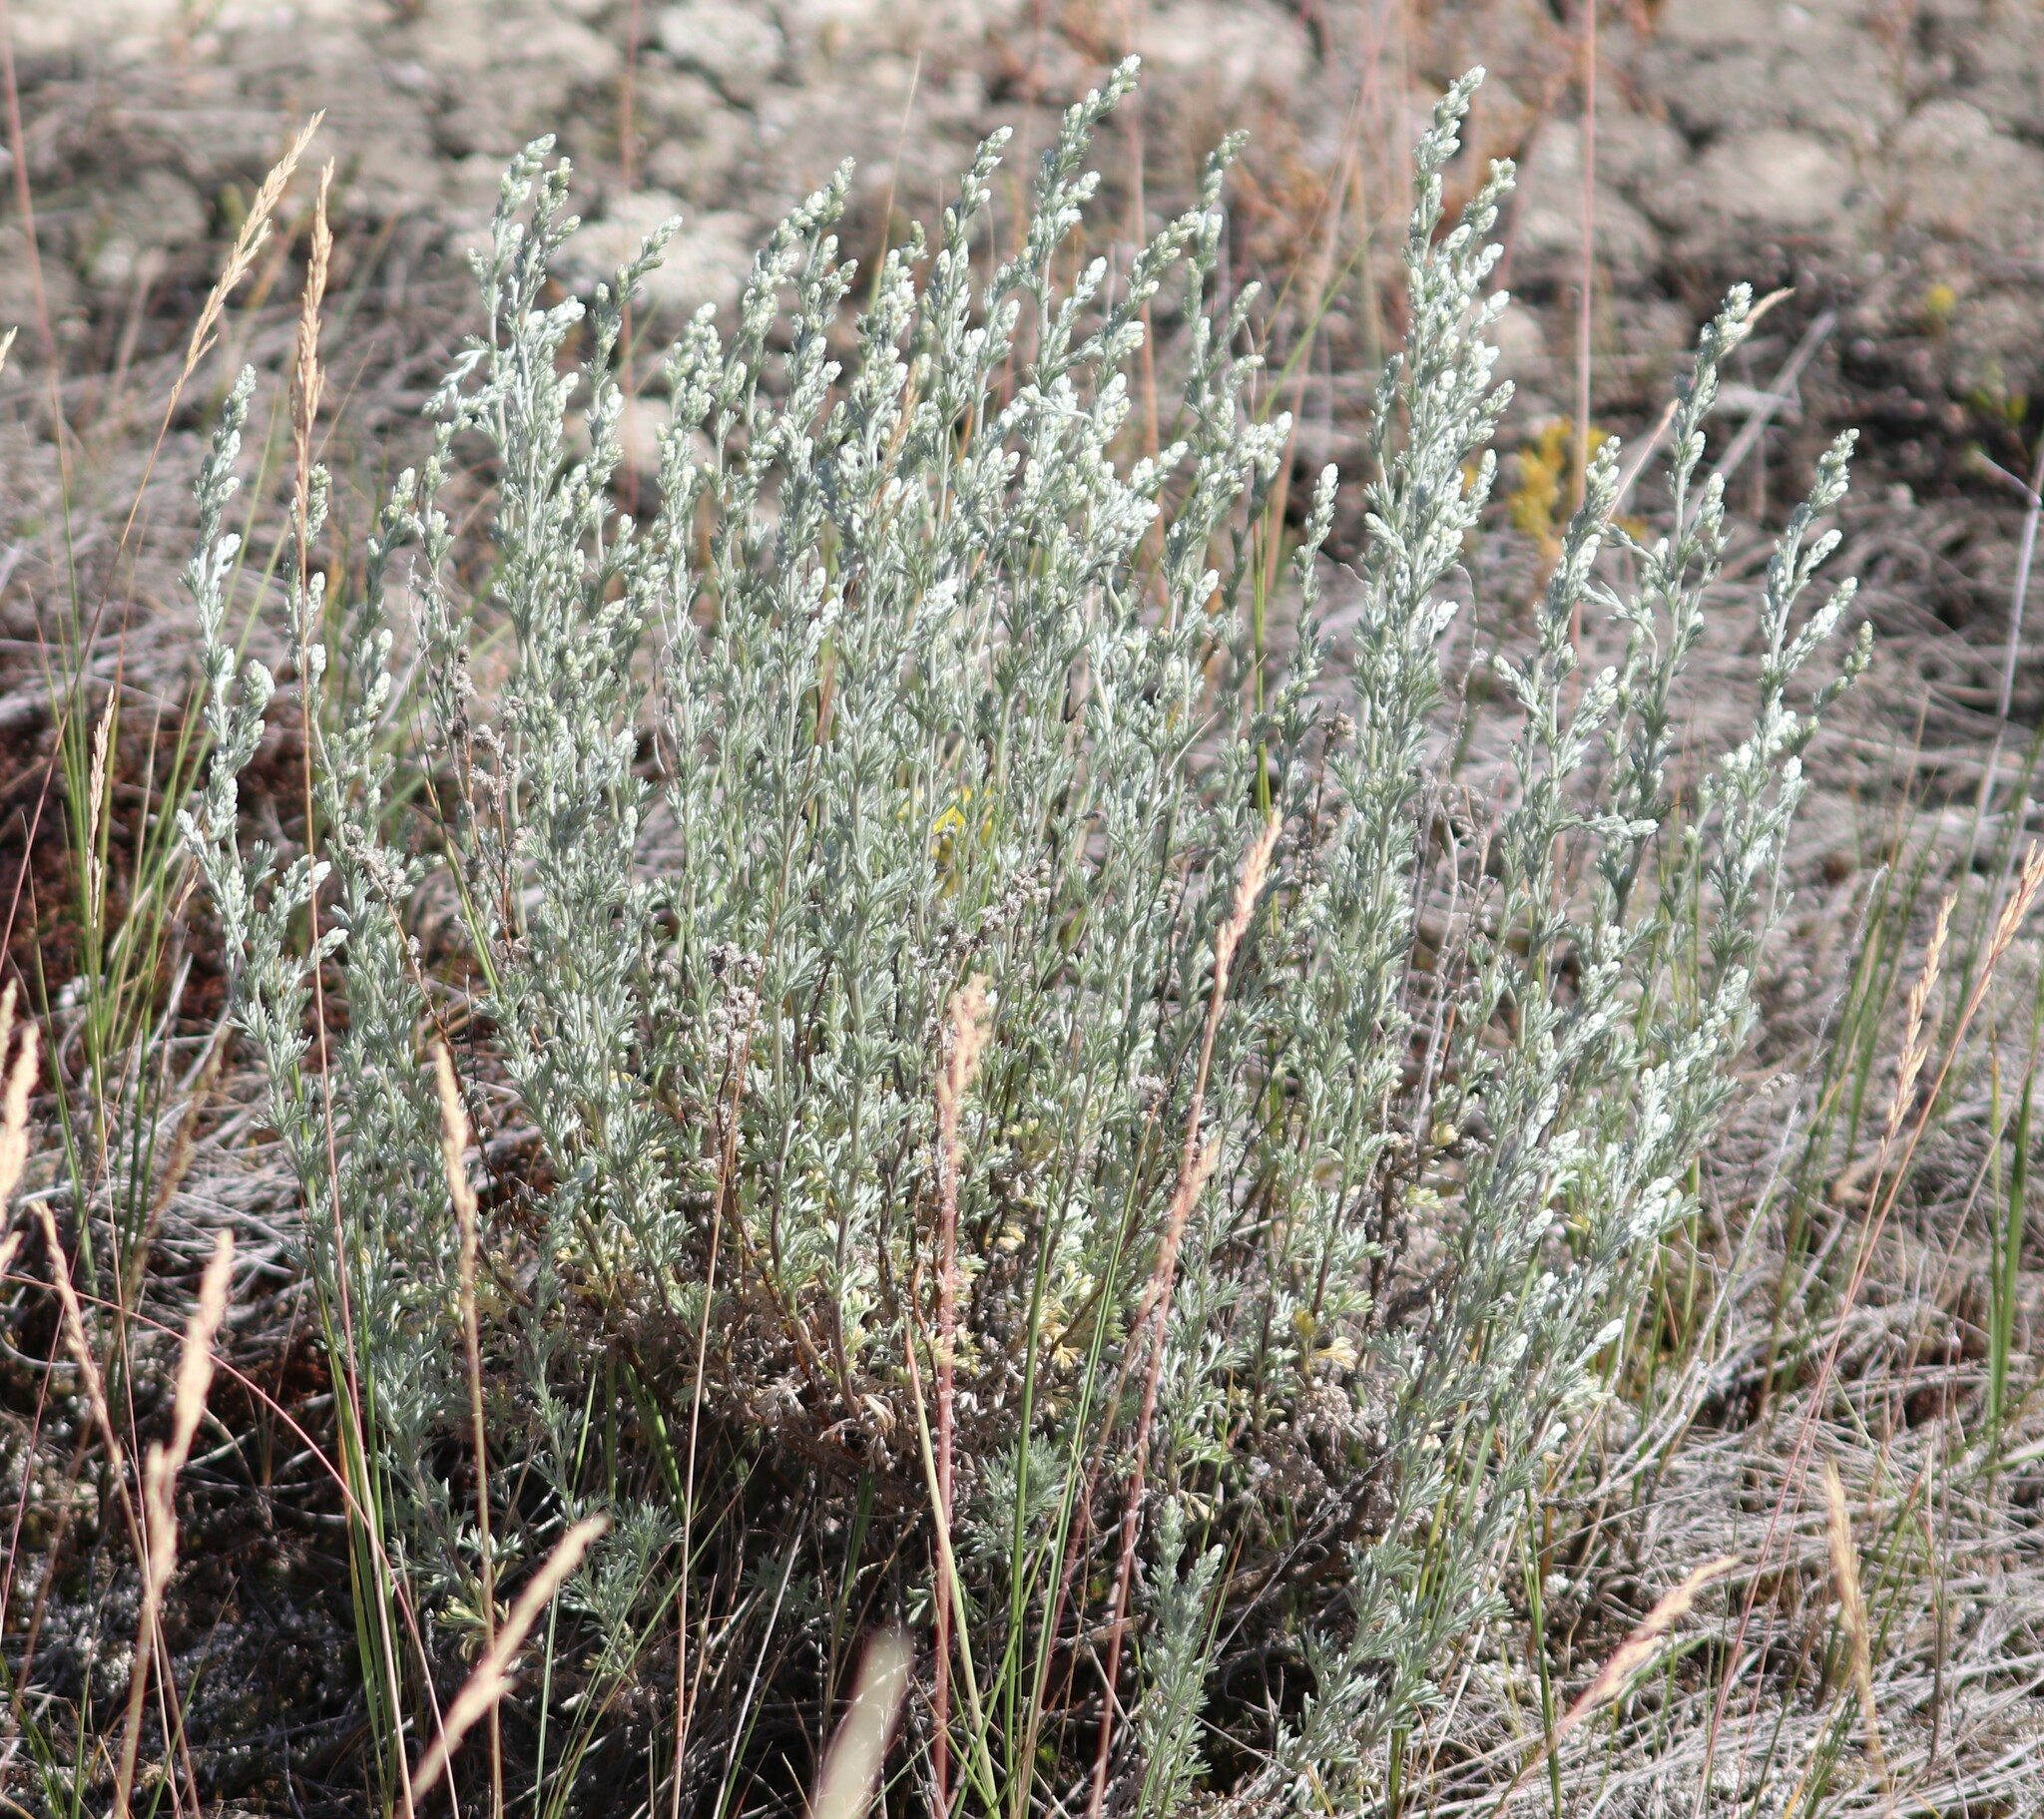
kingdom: Plantae
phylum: Tracheophyta
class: Magnoliopsida
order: Asterales
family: Asteraceae
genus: Artemisia
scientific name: Artemisia frigida
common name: Prairie sagewort
